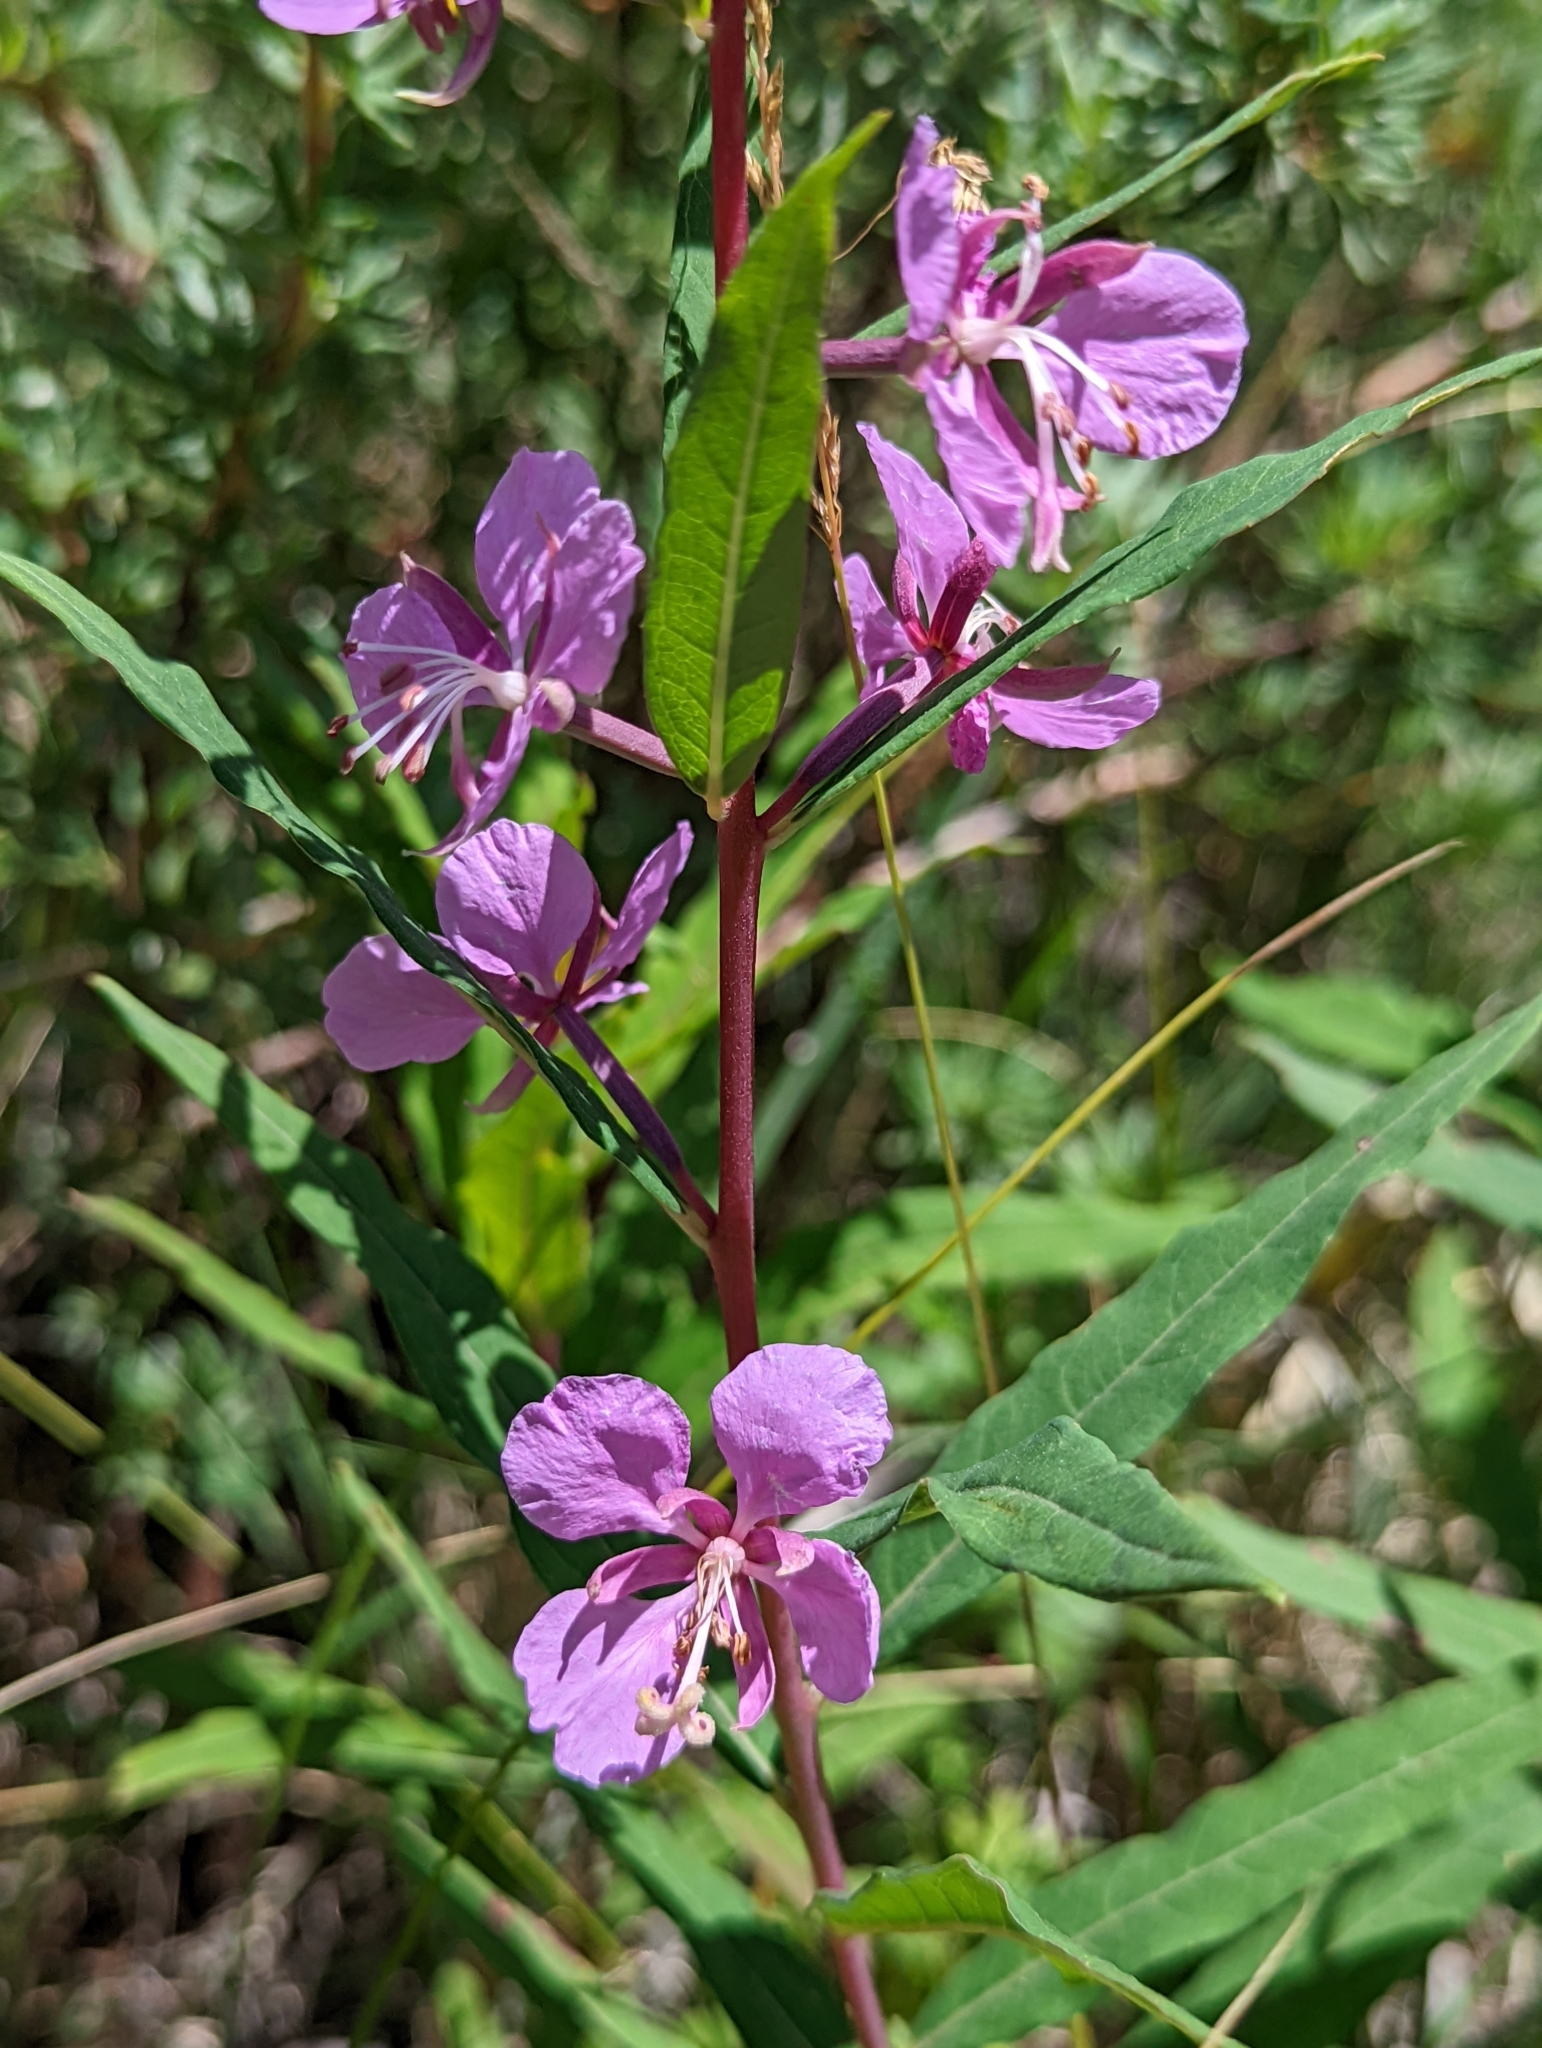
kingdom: Plantae
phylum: Tracheophyta
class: Magnoliopsida
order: Myrtales
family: Onagraceae
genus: Chamaenerion
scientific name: Chamaenerion angustifolium
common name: Fireweed
